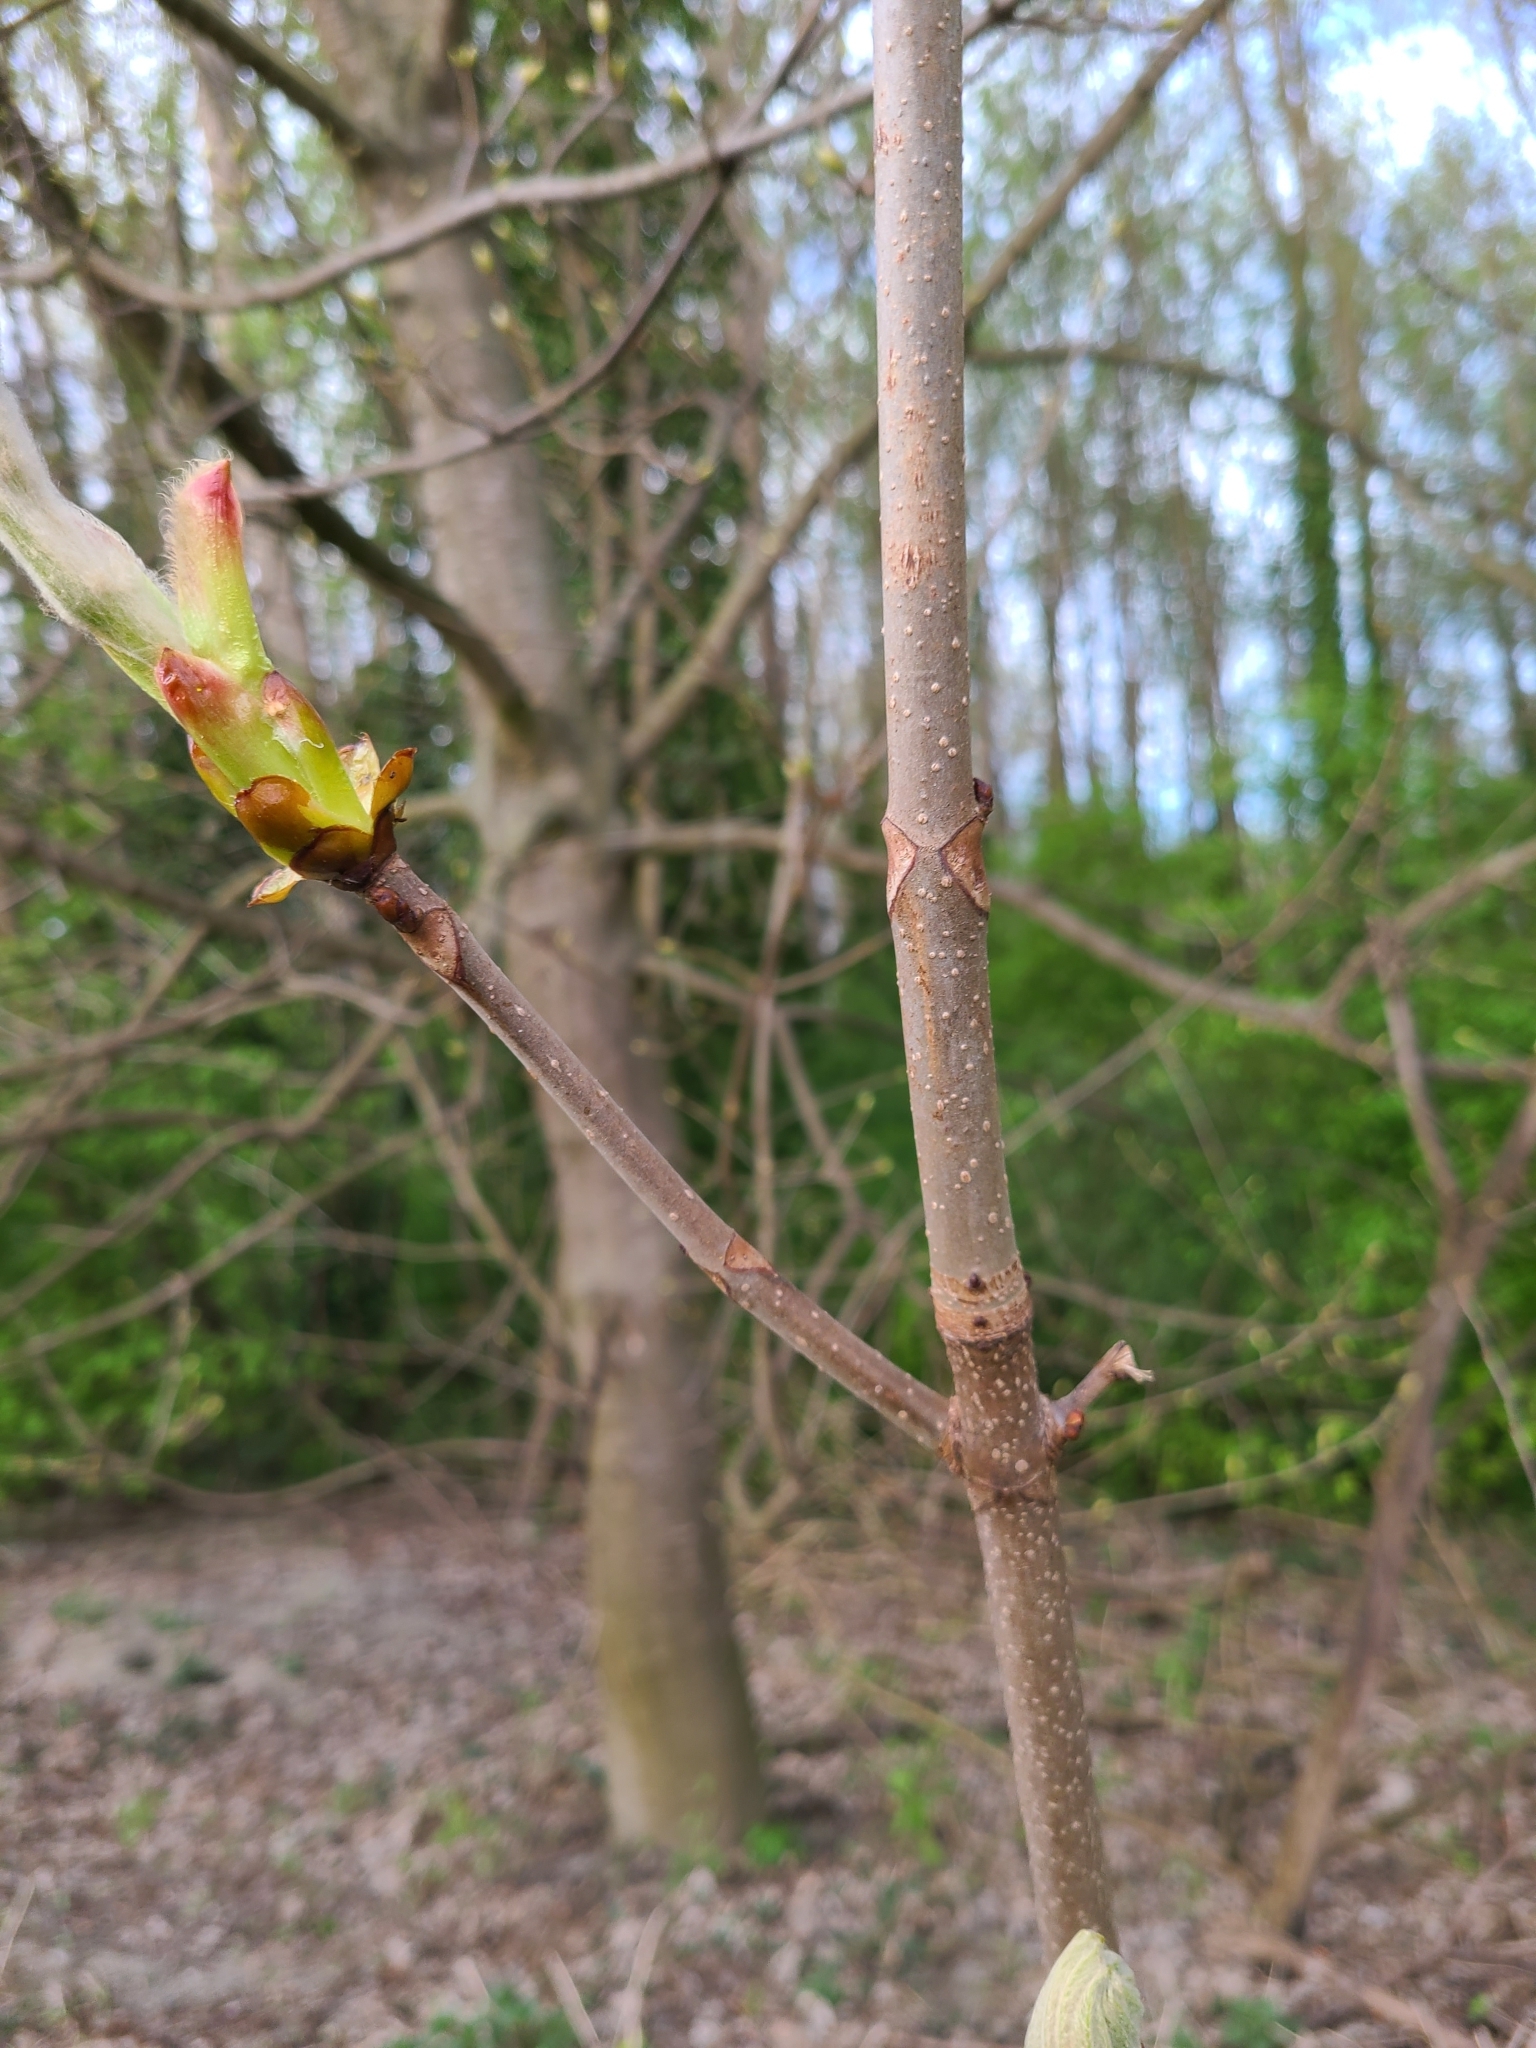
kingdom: Plantae
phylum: Tracheophyta
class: Magnoliopsida
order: Sapindales
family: Sapindaceae
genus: Aesculus
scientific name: Aesculus hippocastanum
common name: Horse-chestnut
